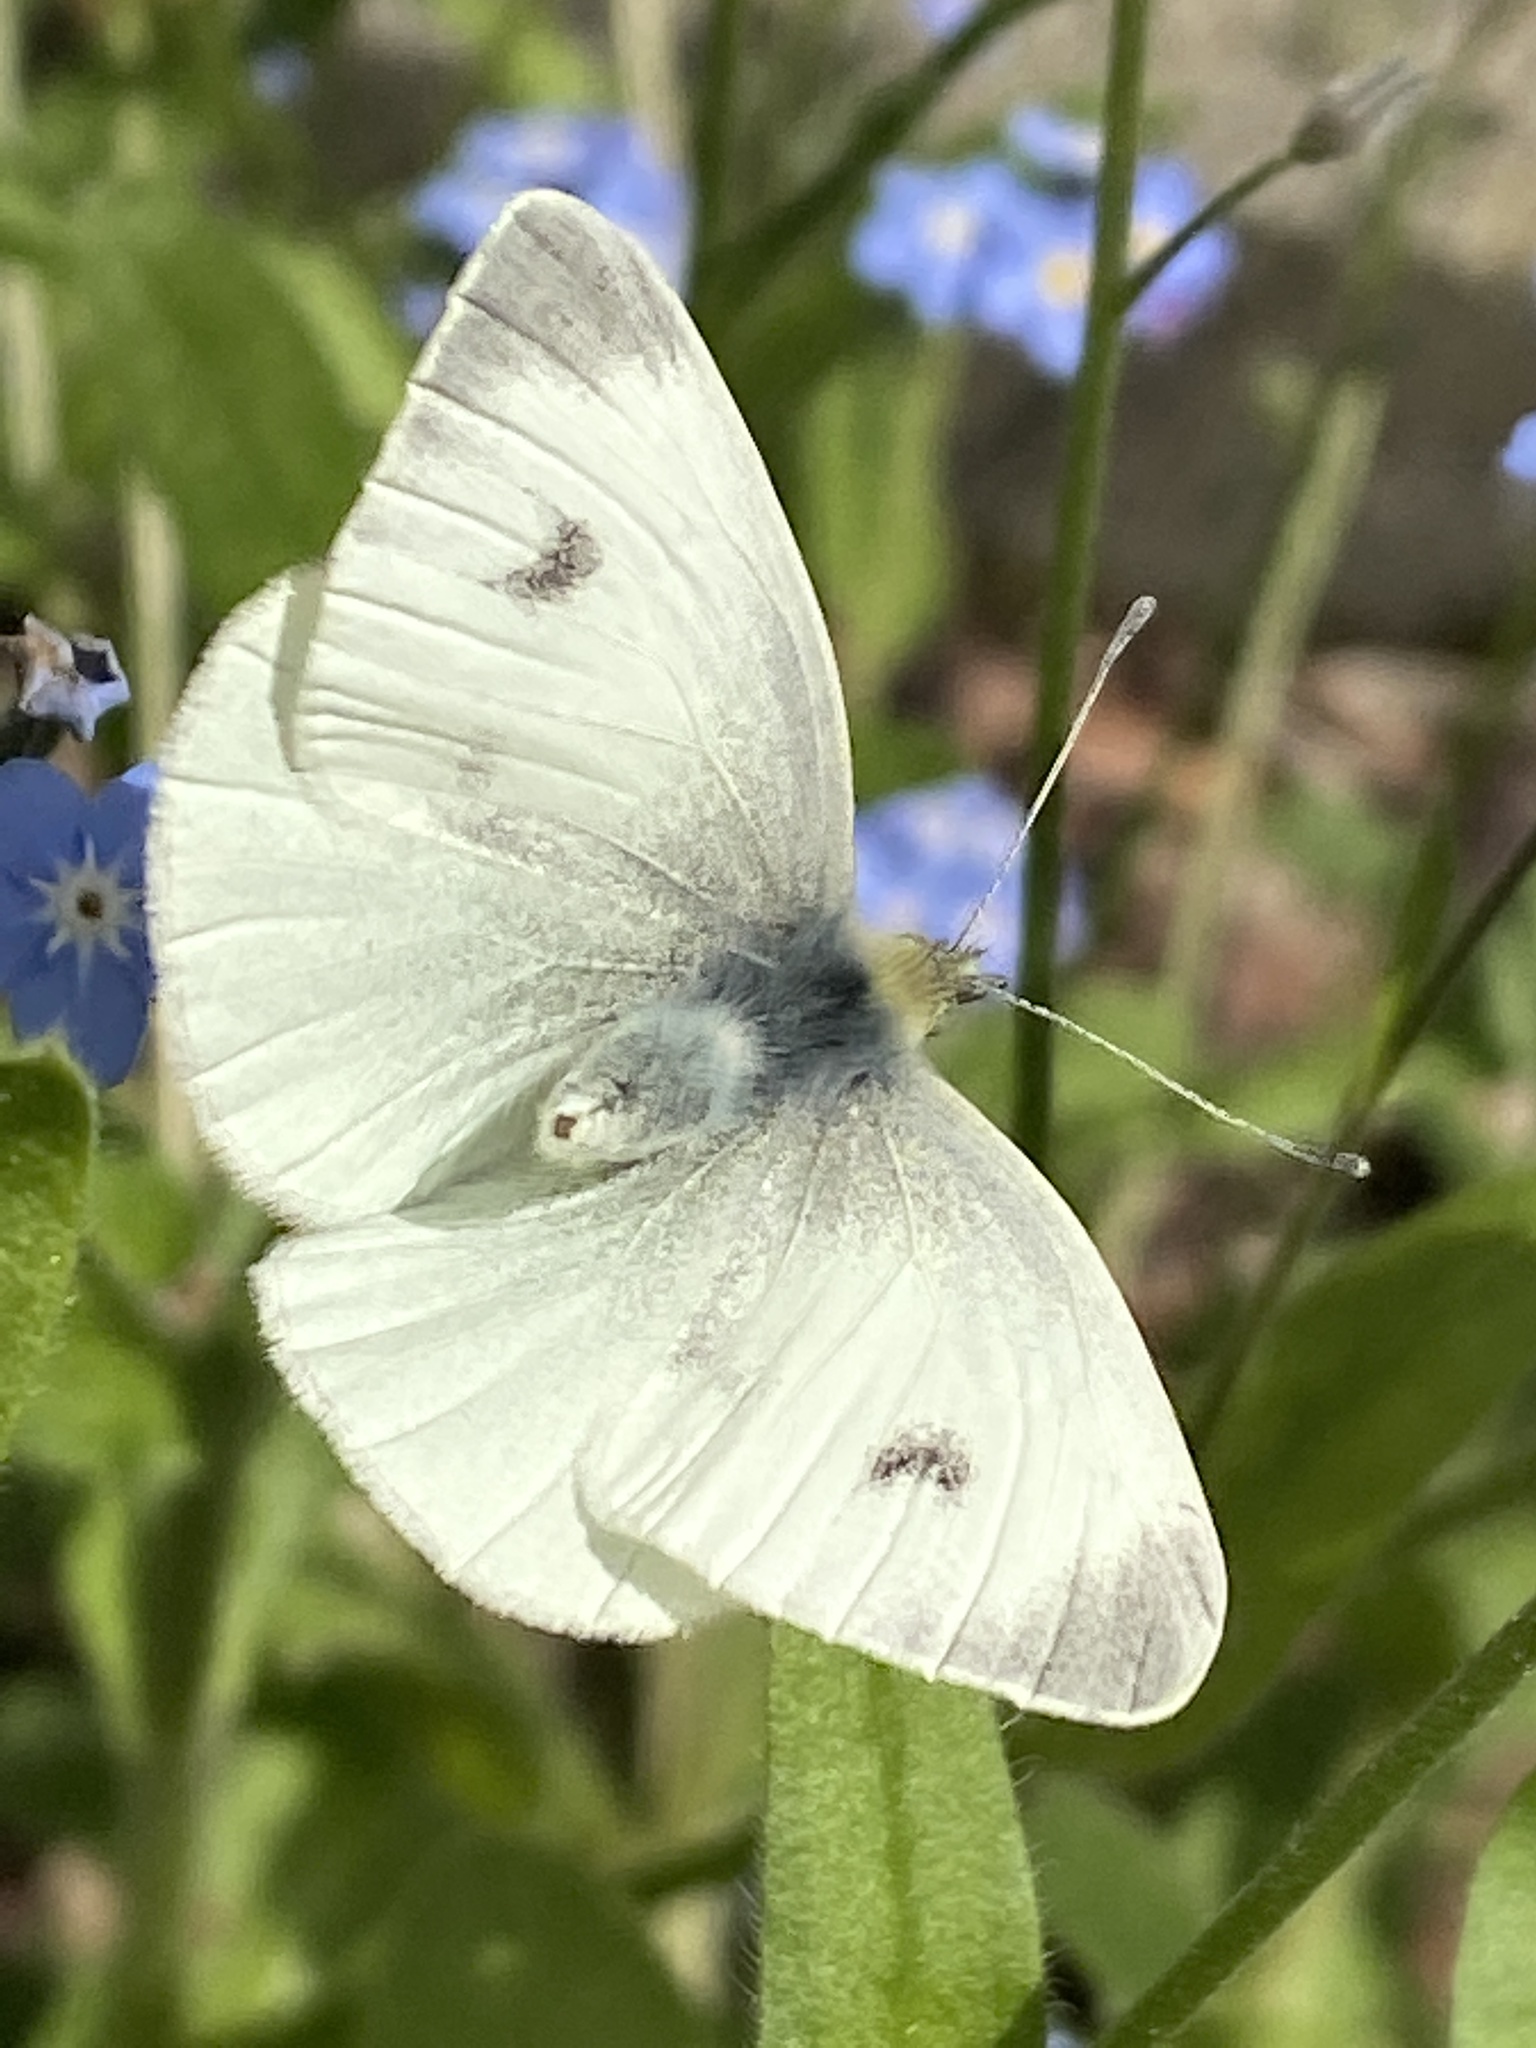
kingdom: Animalia
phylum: Arthropoda
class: Insecta
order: Lepidoptera
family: Pieridae
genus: Pieris
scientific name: Pieris mannii
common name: Southern small white
